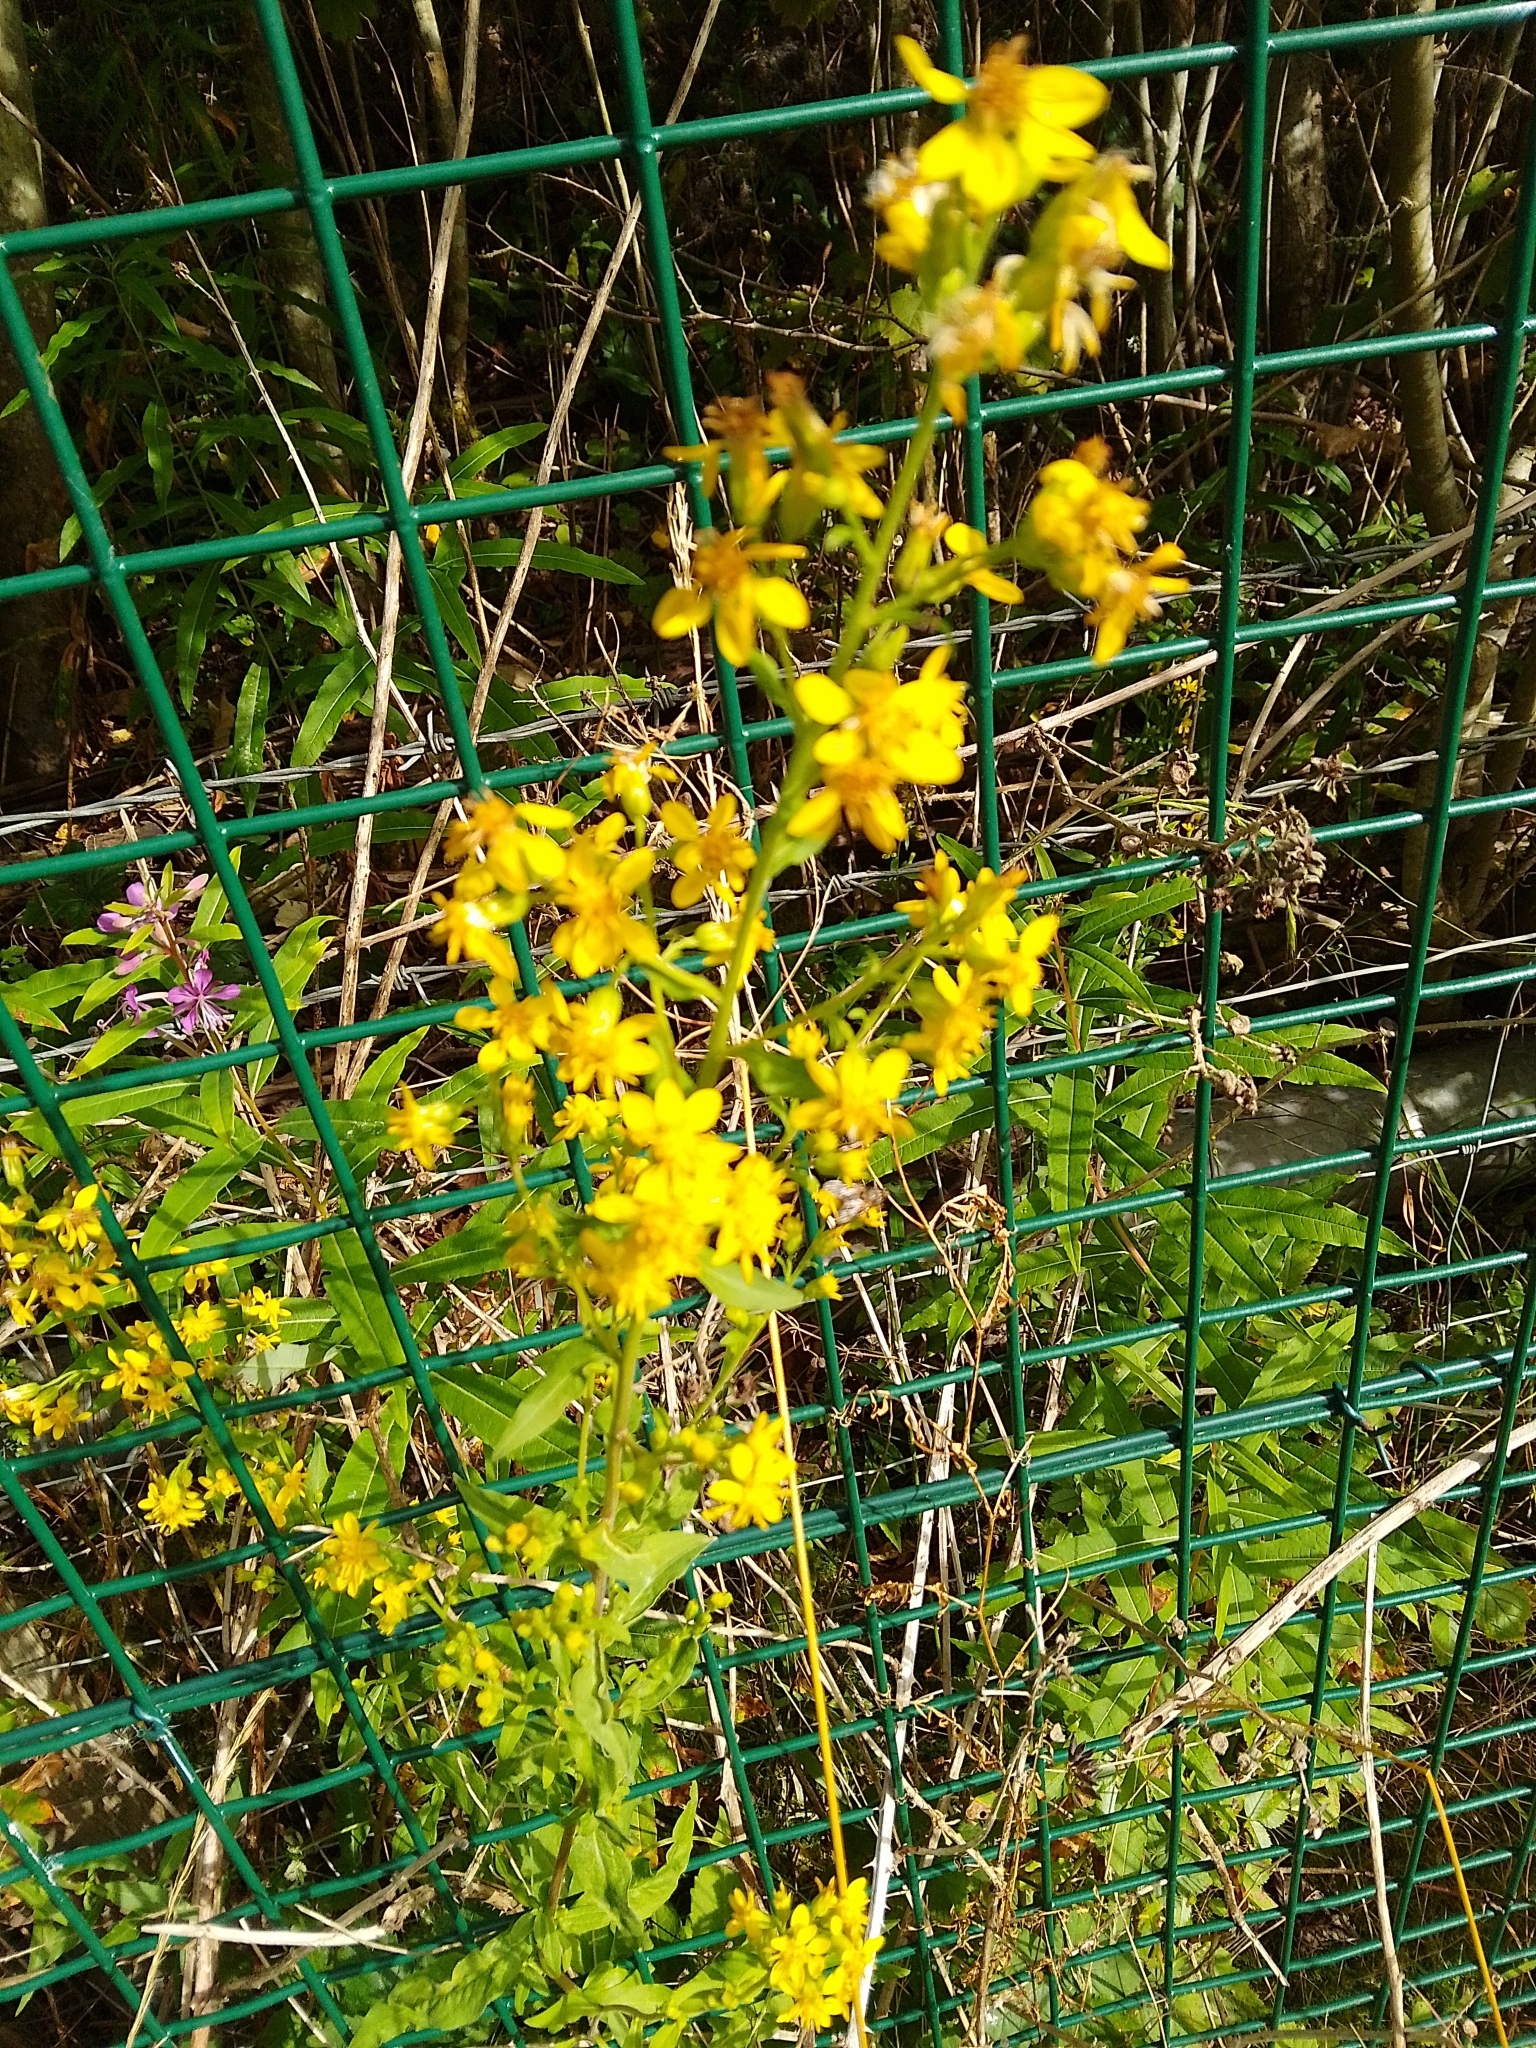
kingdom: Plantae
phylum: Tracheophyta
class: Magnoliopsida
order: Asterales
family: Asteraceae
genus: Solidago
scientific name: Solidago virgaurea
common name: Goldenrod
